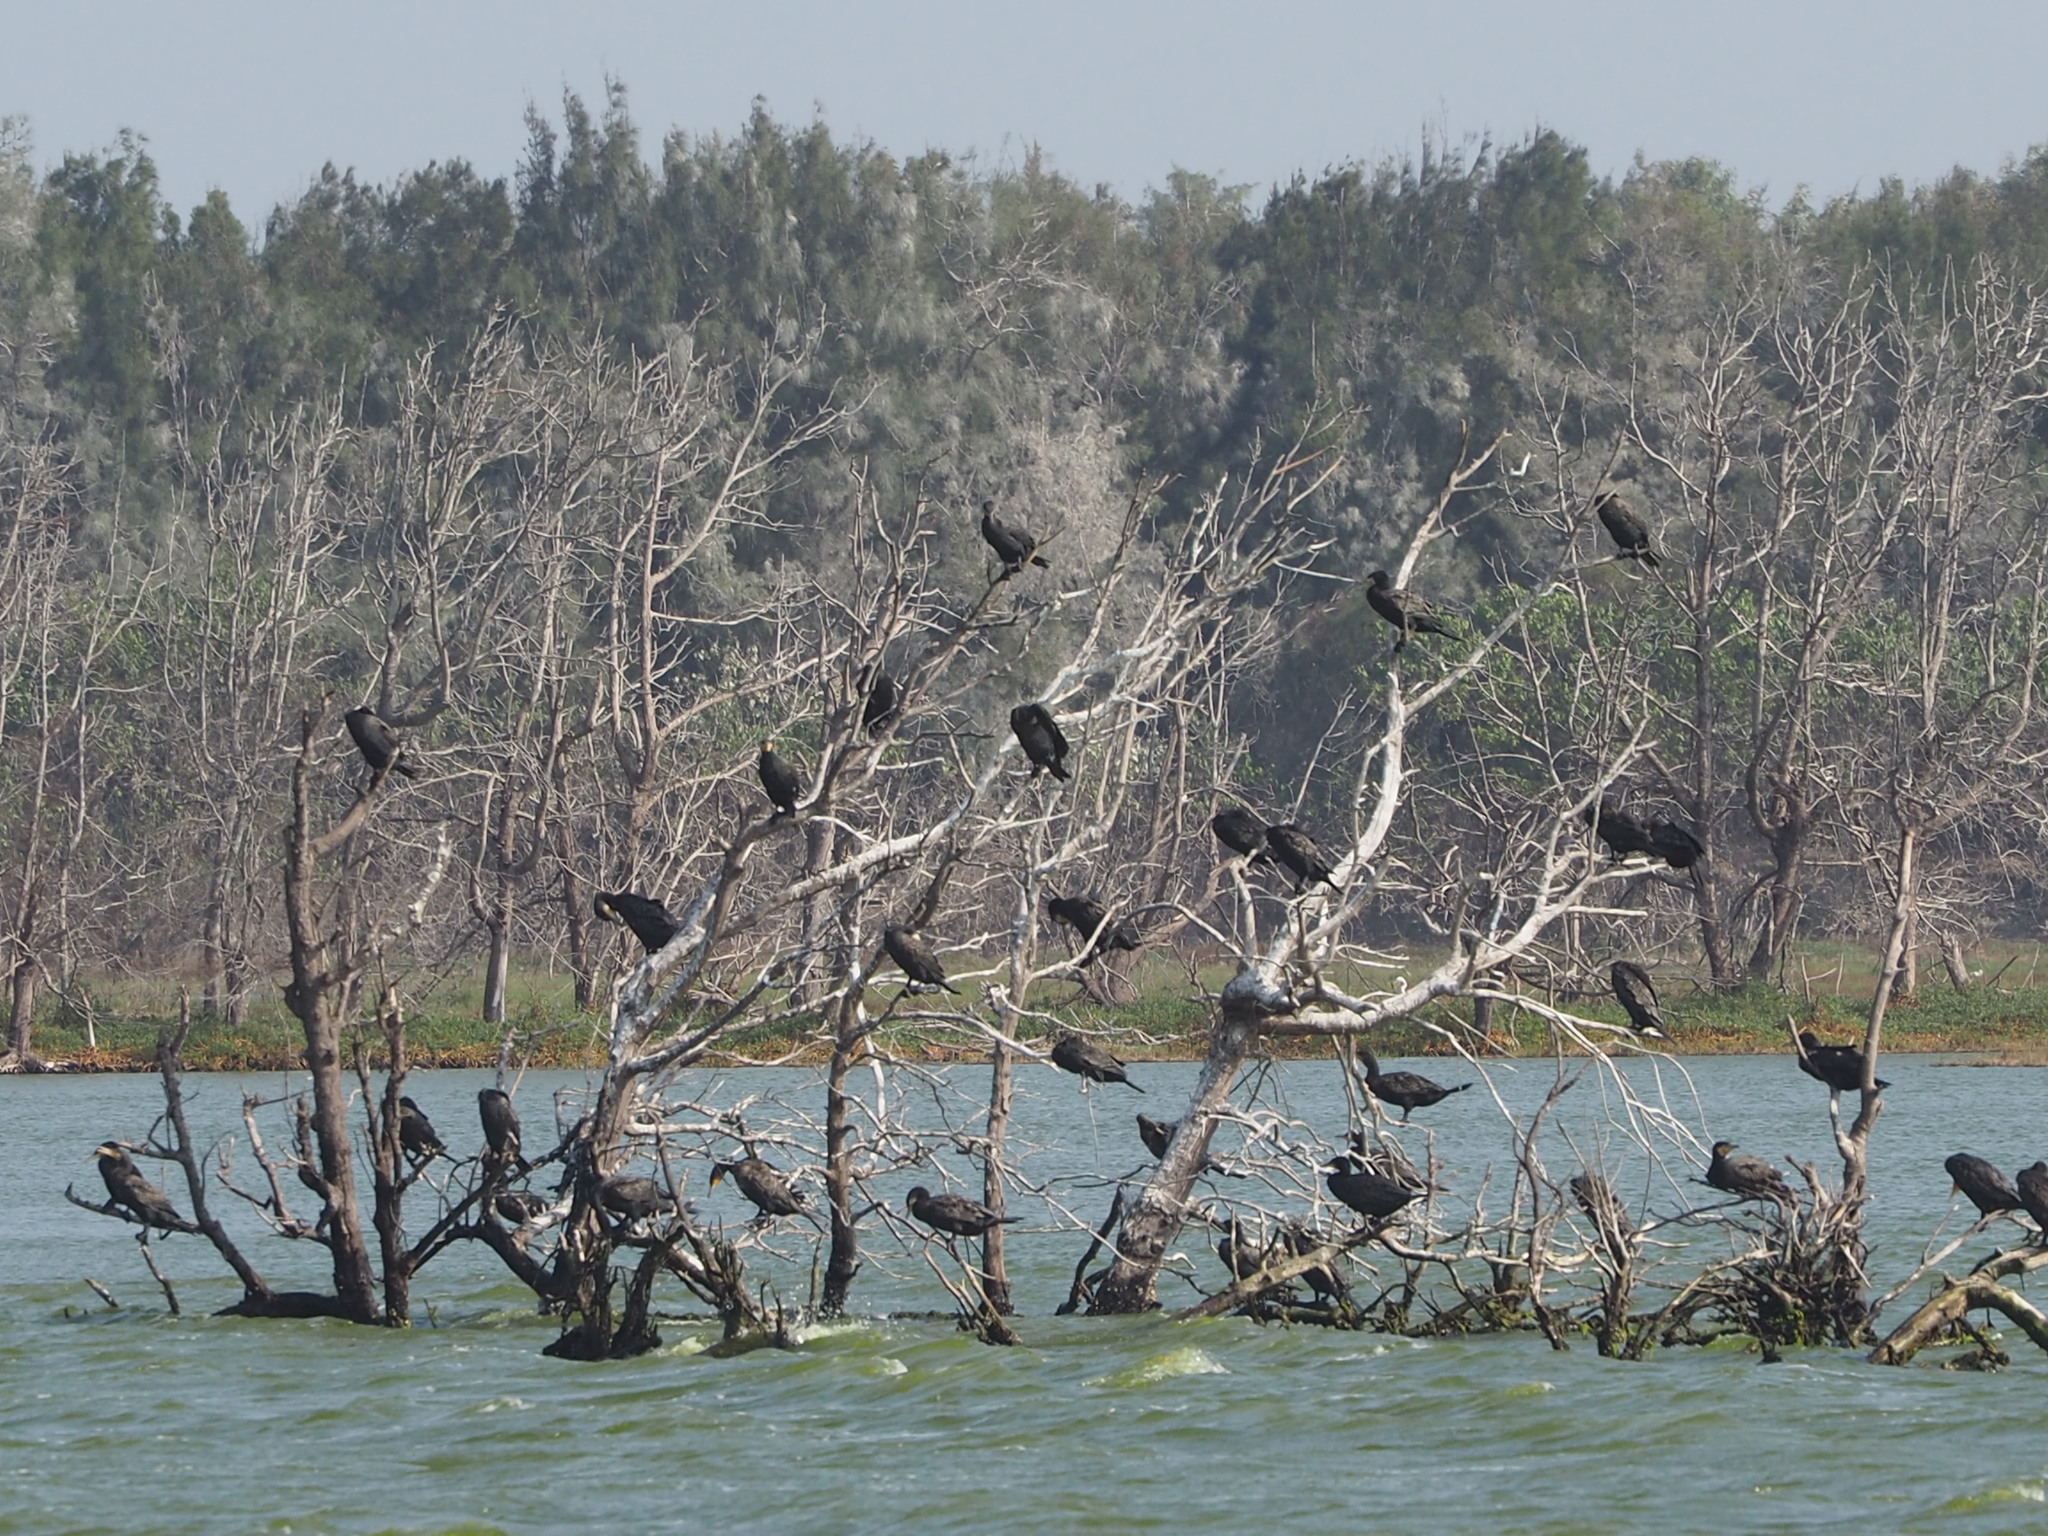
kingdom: Animalia
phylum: Chordata
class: Aves
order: Suliformes
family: Phalacrocoracidae
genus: Phalacrocorax
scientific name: Phalacrocorax carbo
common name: Great cormorant
